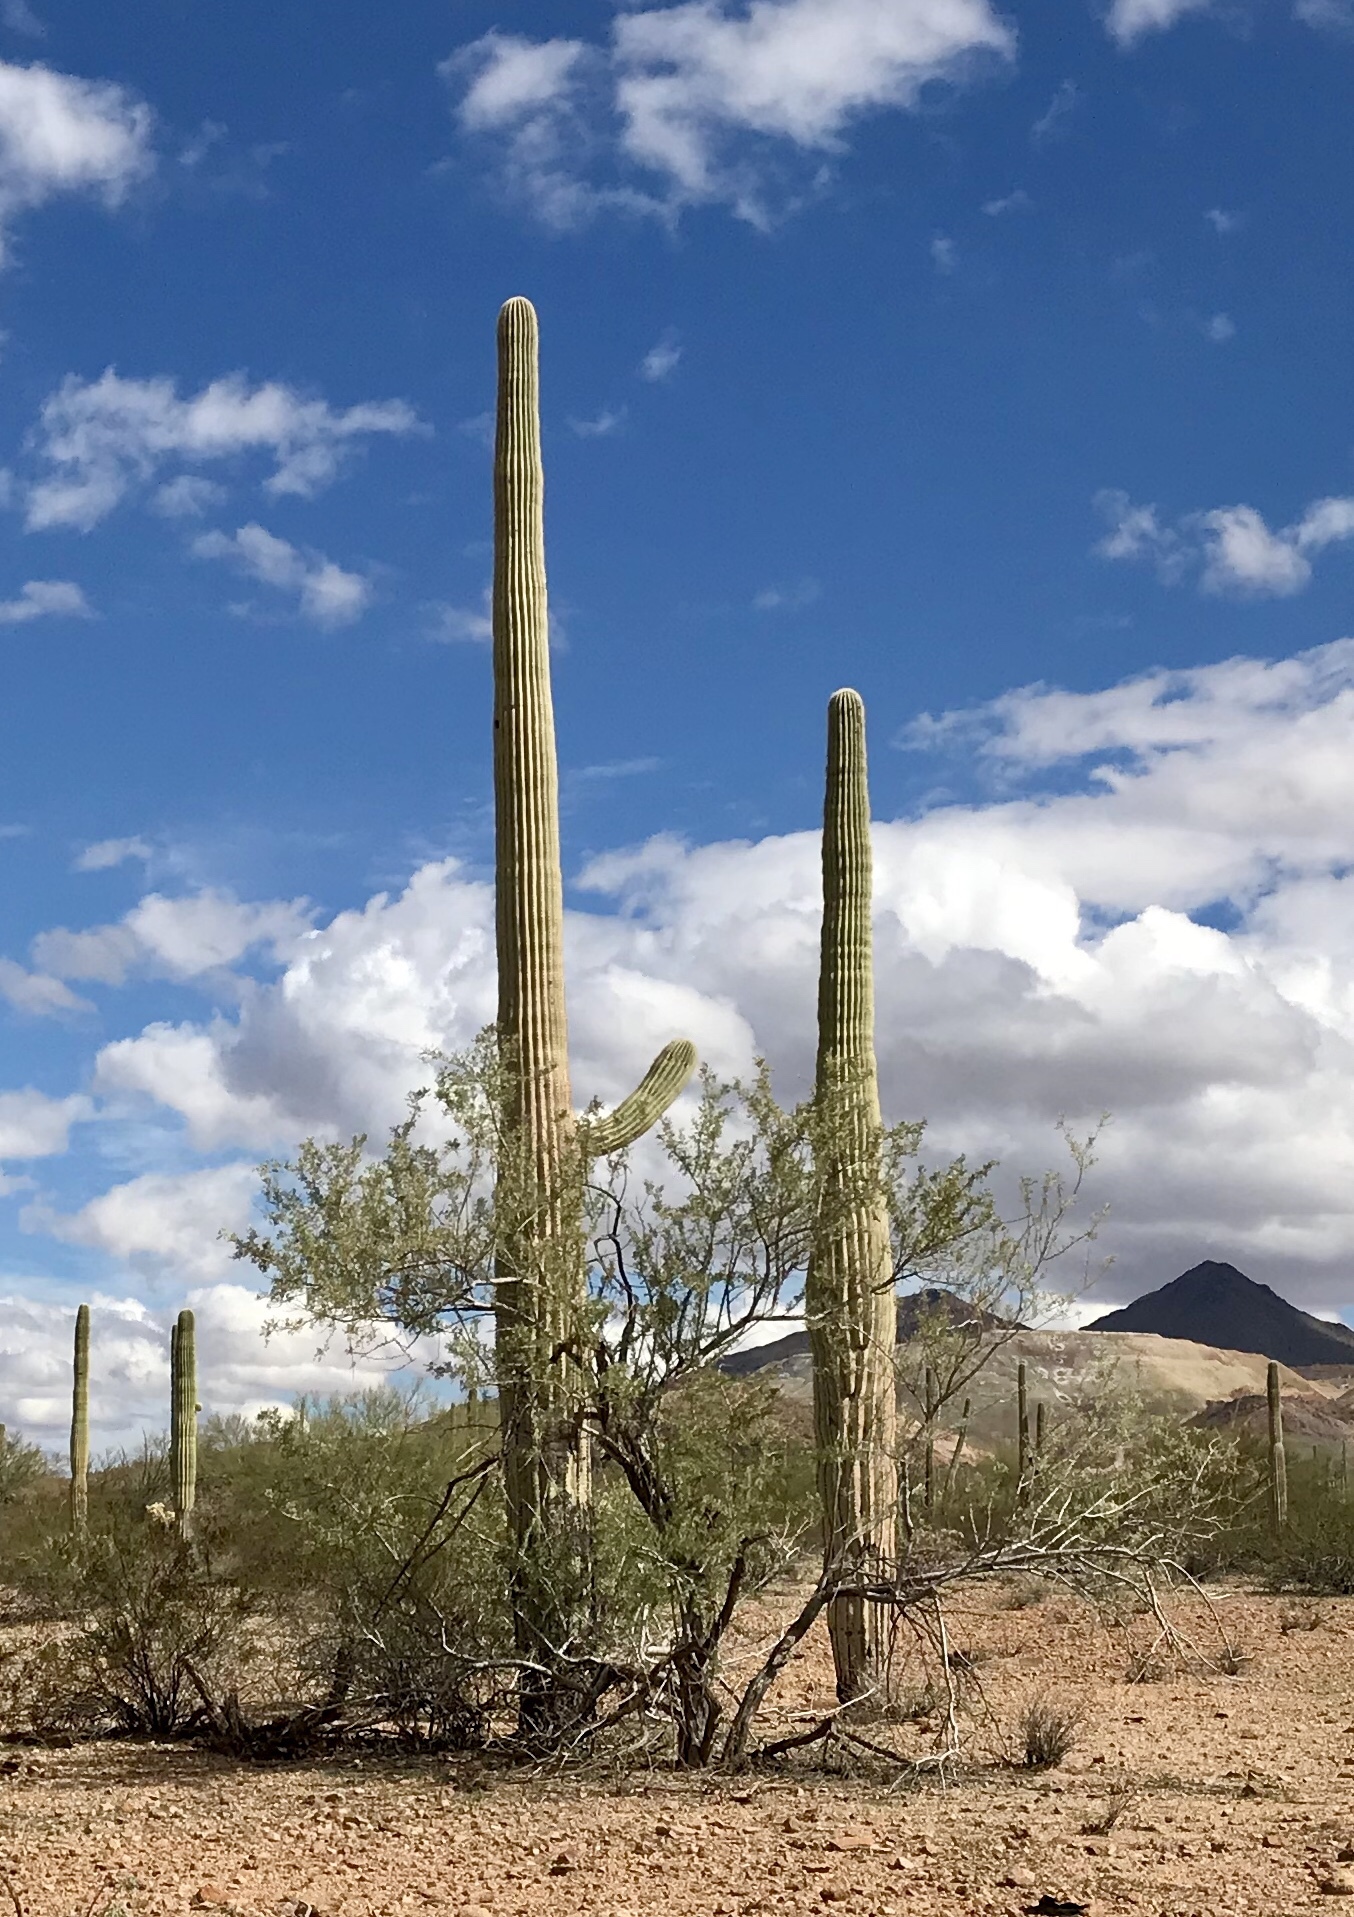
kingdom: Plantae
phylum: Tracheophyta
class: Magnoliopsida
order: Caryophyllales
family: Cactaceae
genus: Carnegiea
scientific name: Carnegiea gigantea
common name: Saguaro
